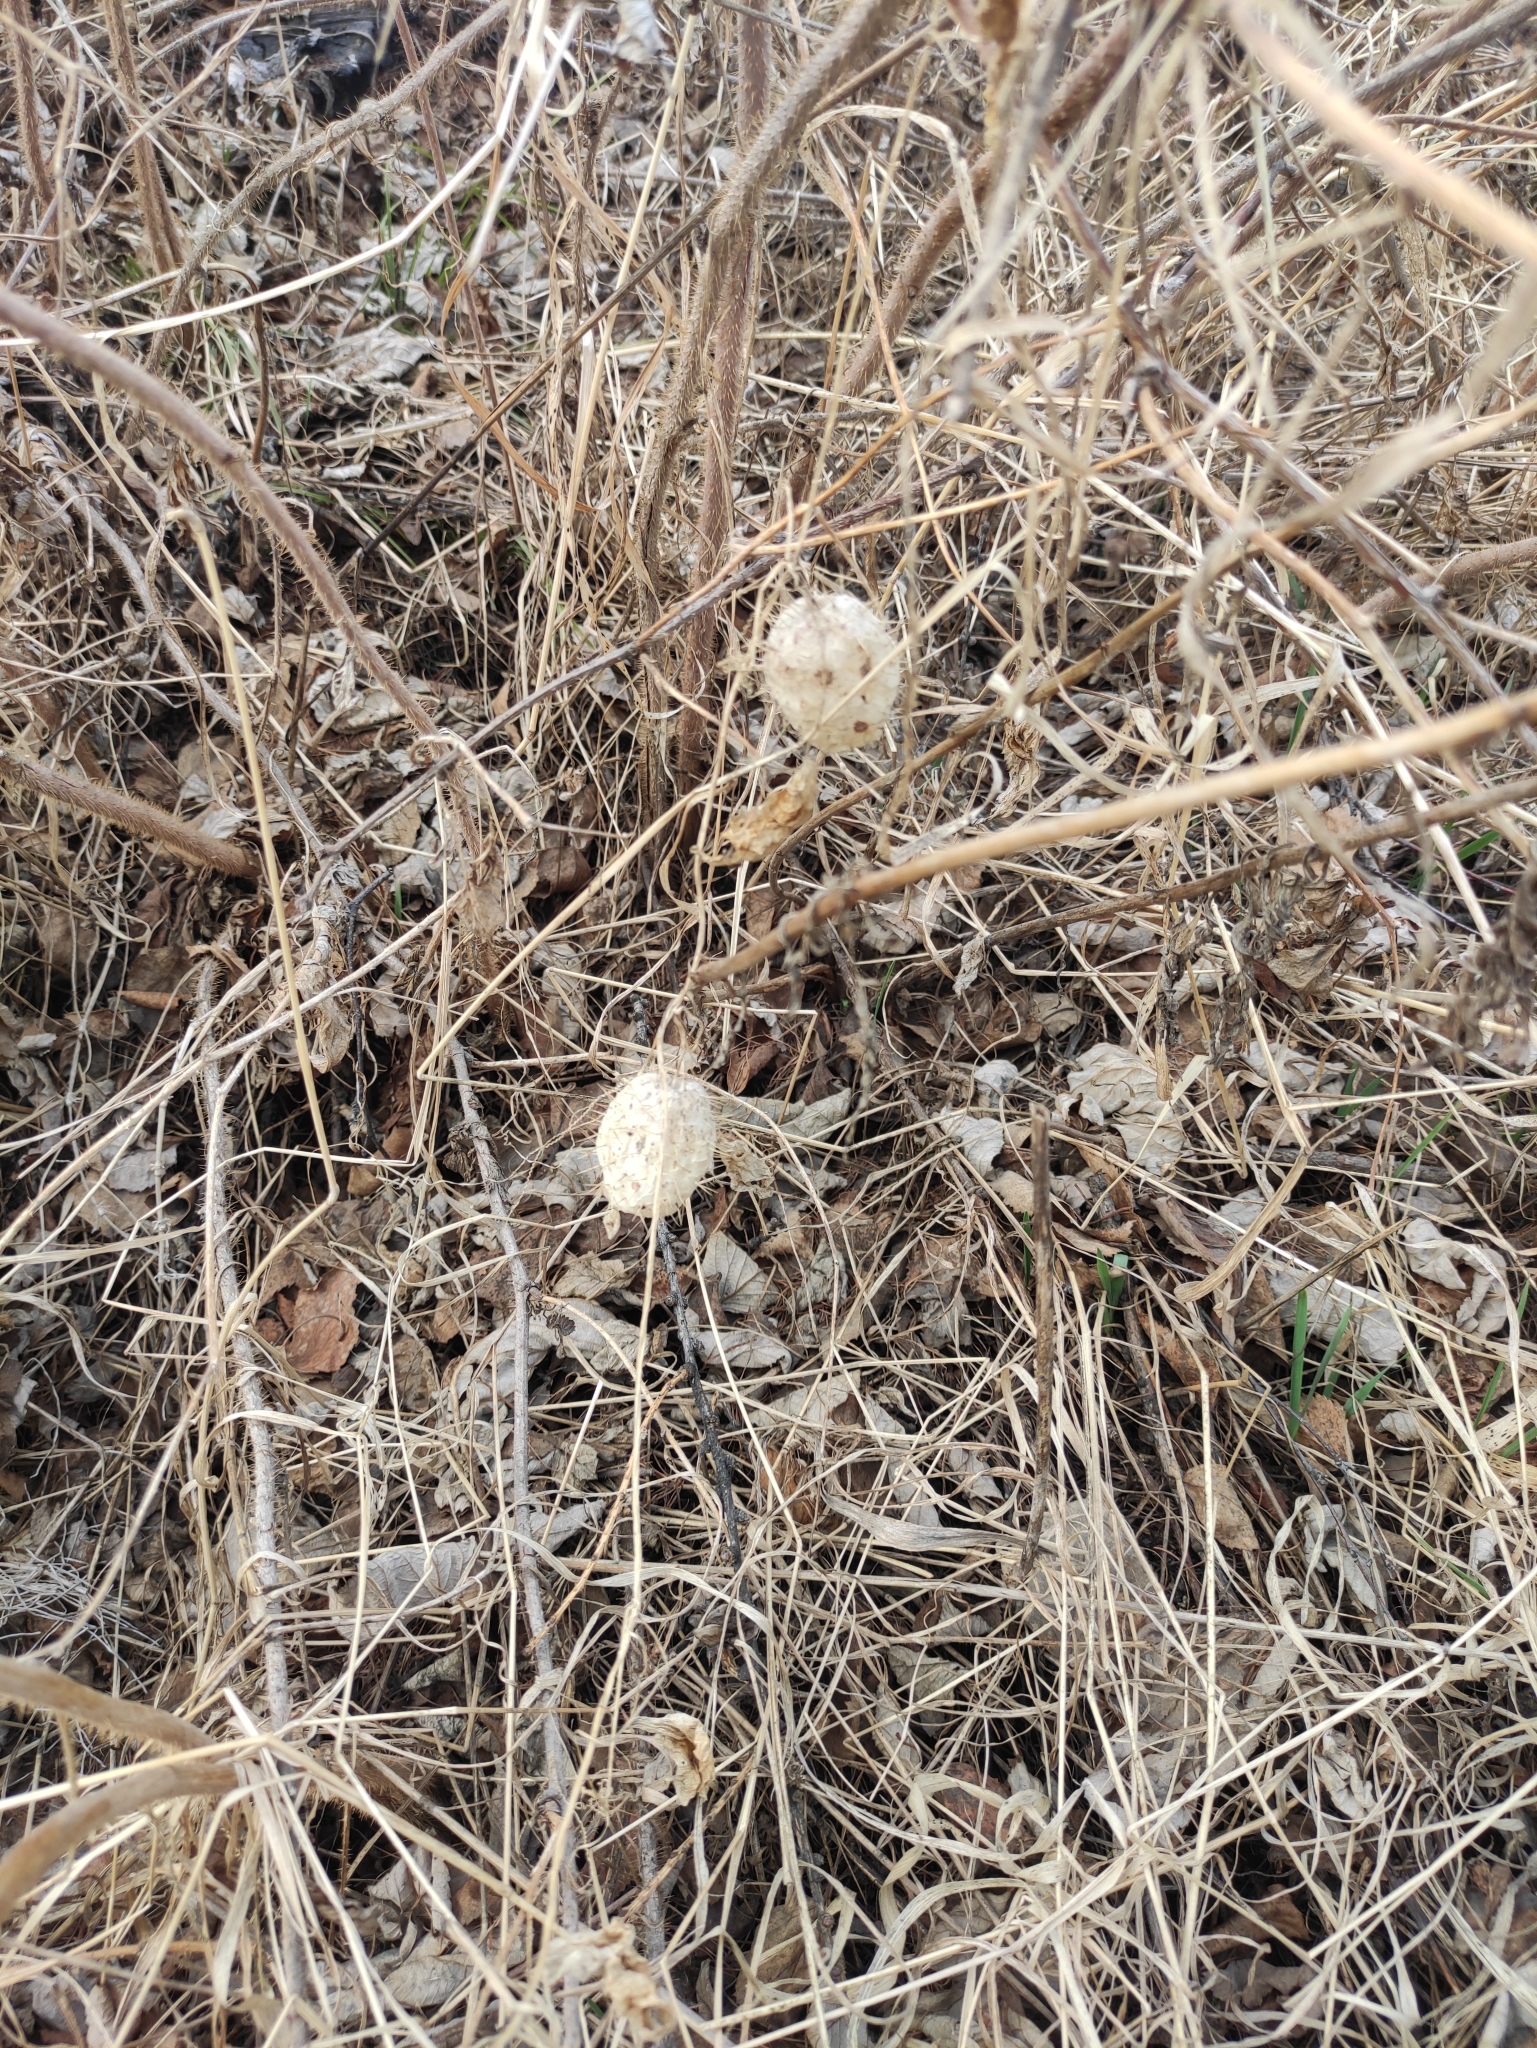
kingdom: Plantae
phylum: Tracheophyta
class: Magnoliopsida
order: Cucurbitales
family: Cucurbitaceae
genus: Echinocystis
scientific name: Echinocystis lobata
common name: Wild cucumber
